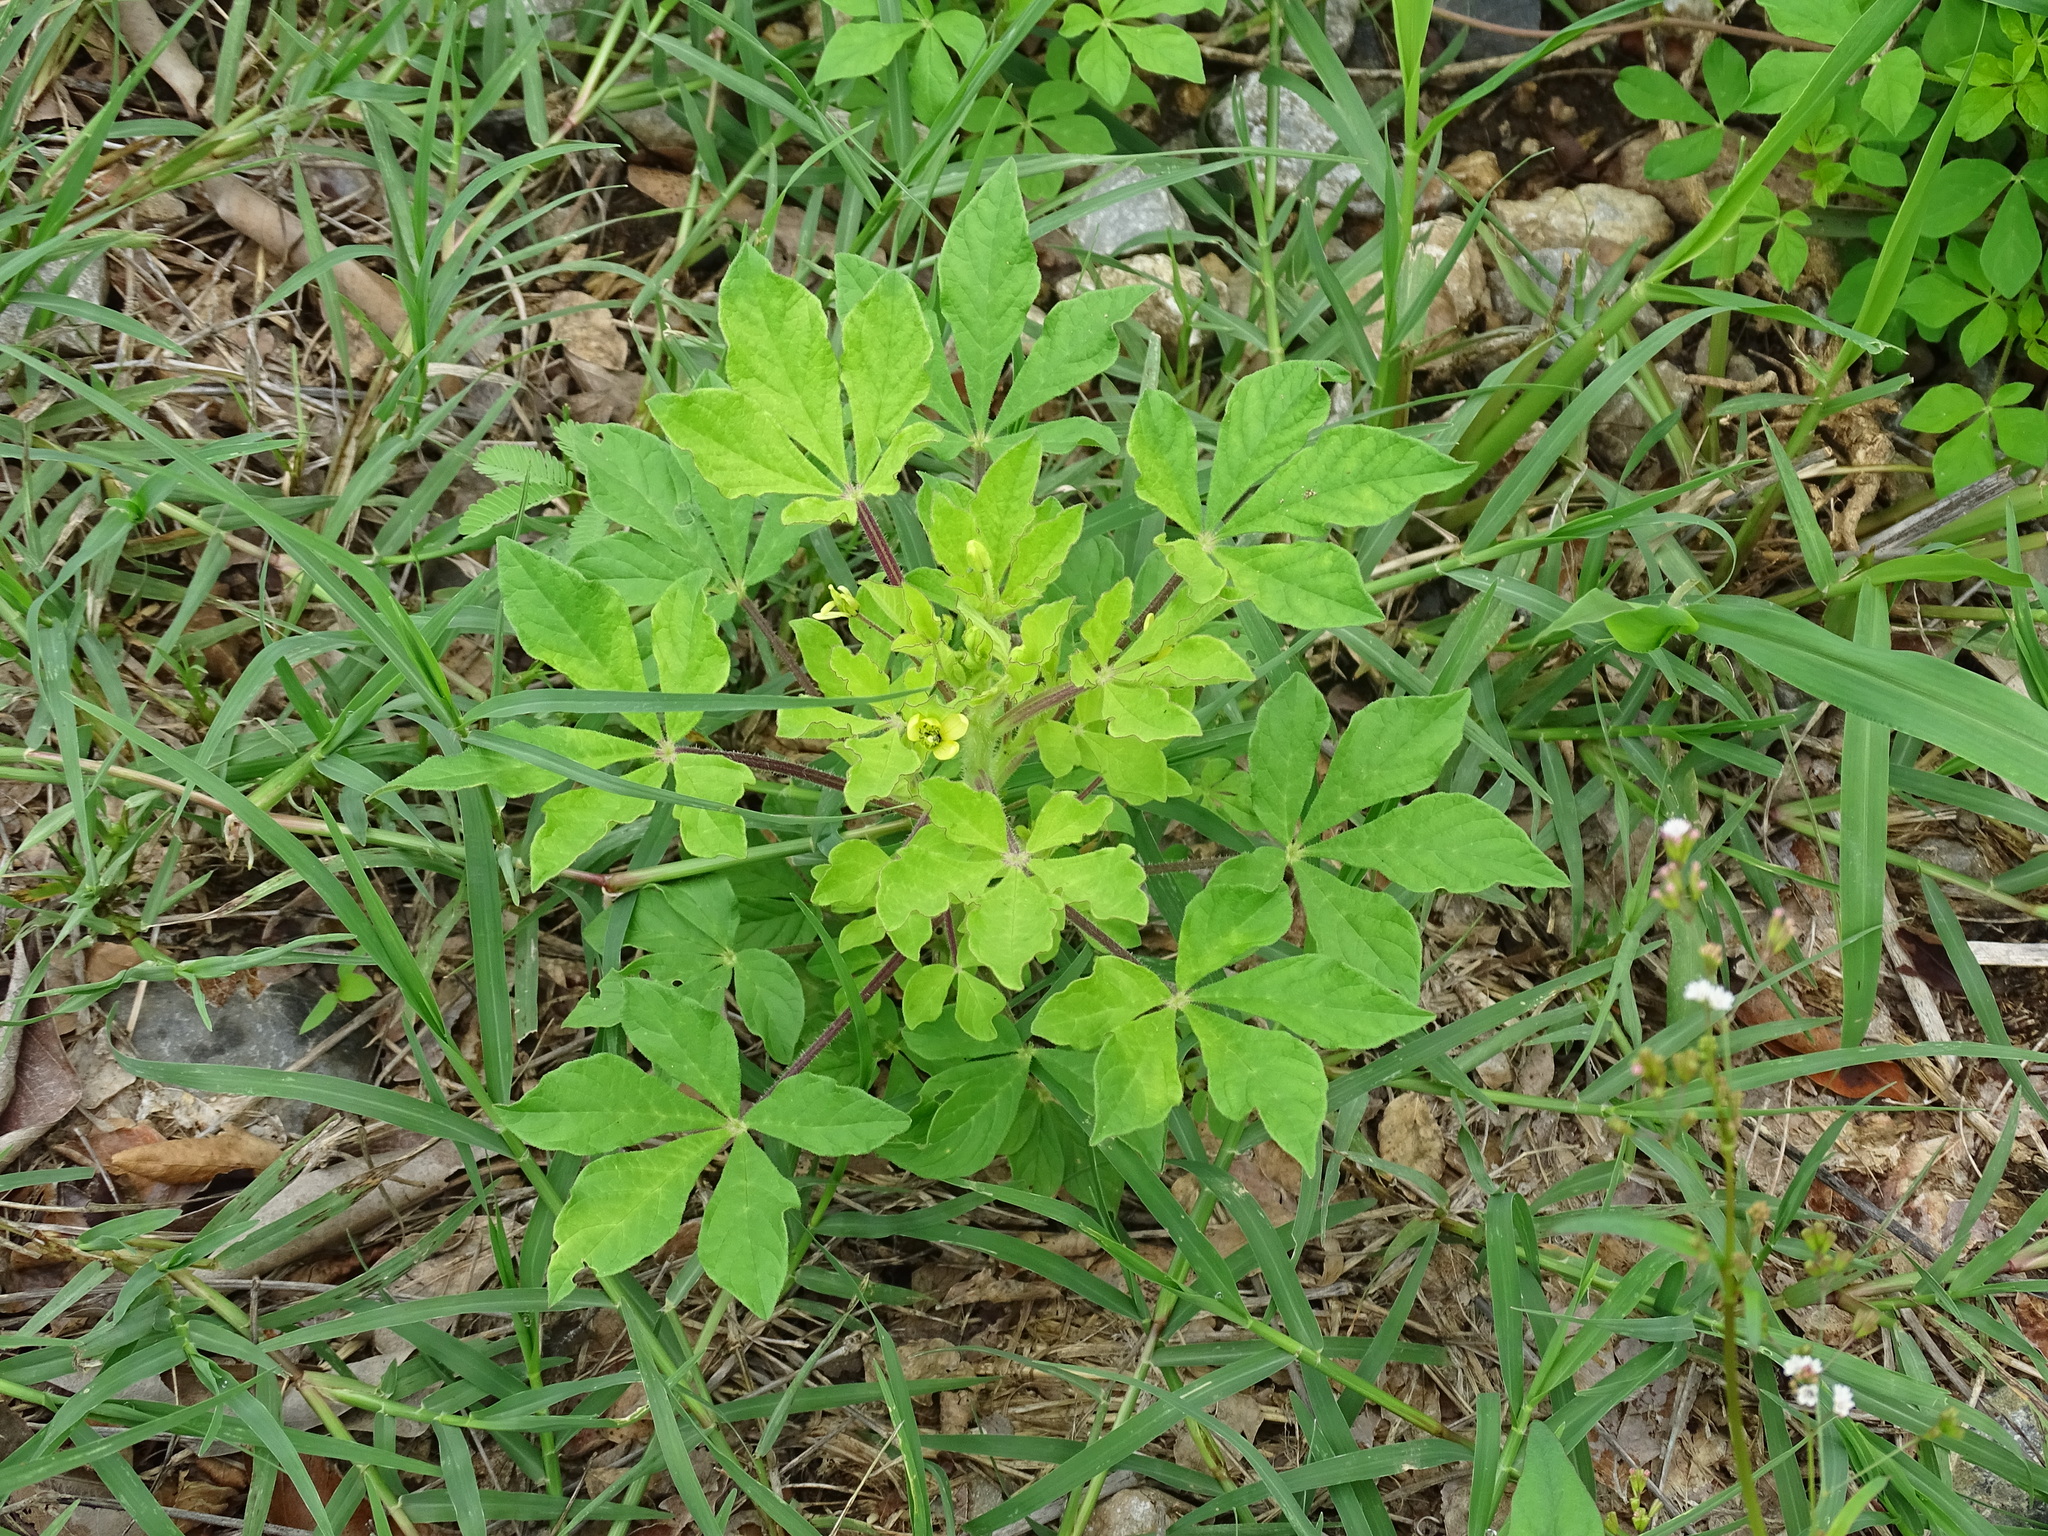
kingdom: Plantae
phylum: Tracheophyta
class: Magnoliopsida
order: Brassicales
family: Cleomaceae
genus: Arivela
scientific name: Arivela viscosa
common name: Asian spiderflower
